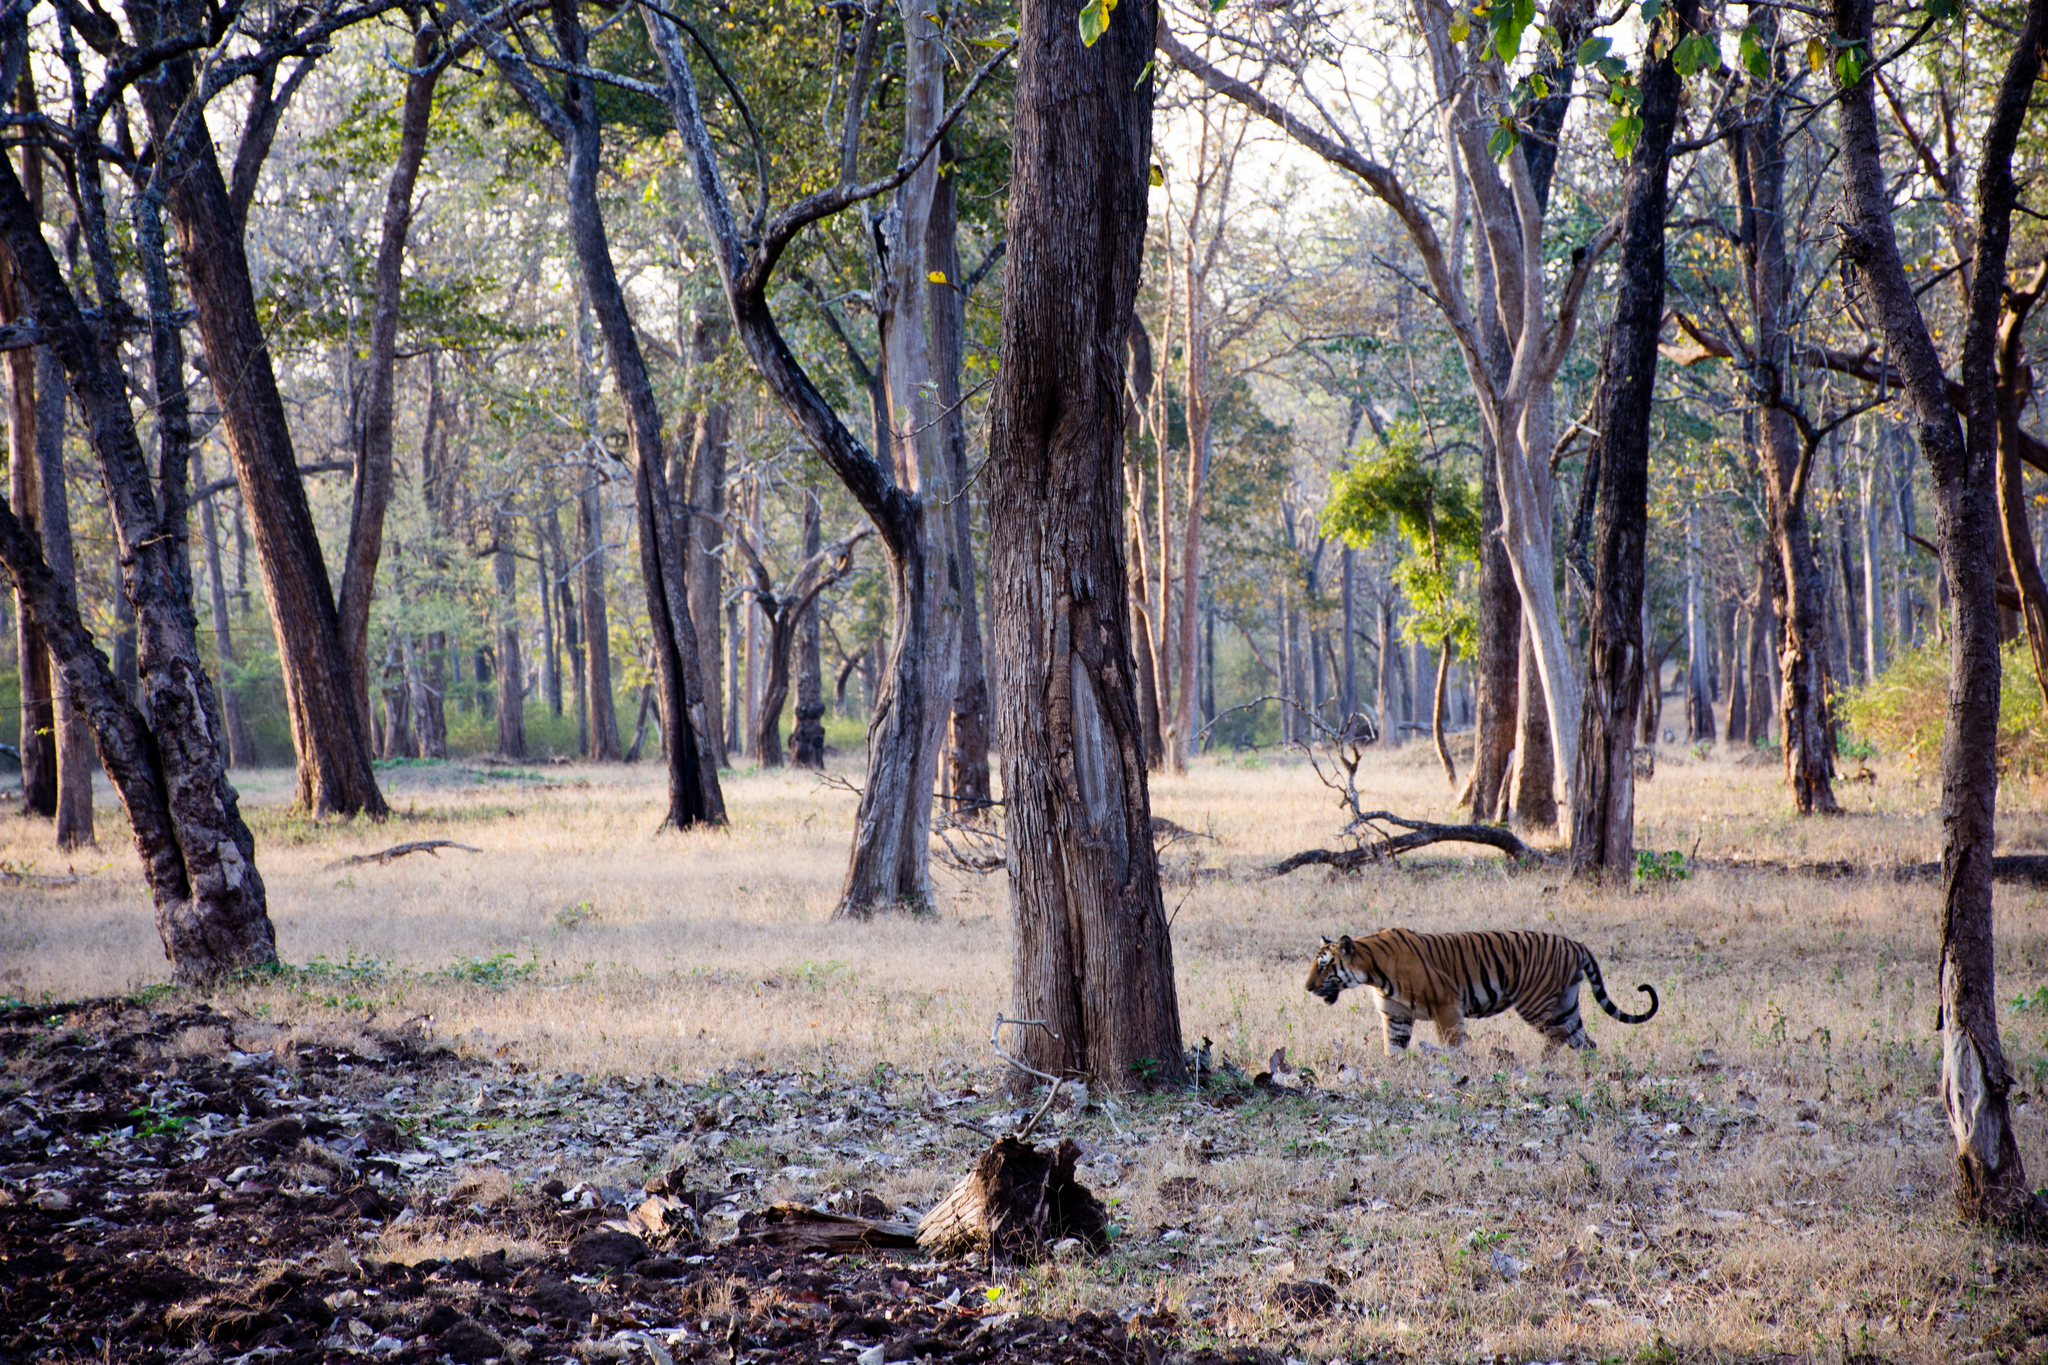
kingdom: Animalia
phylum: Chordata
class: Mammalia
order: Carnivora
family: Felidae
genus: Panthera
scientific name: Panthera tigris
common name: Tiger
